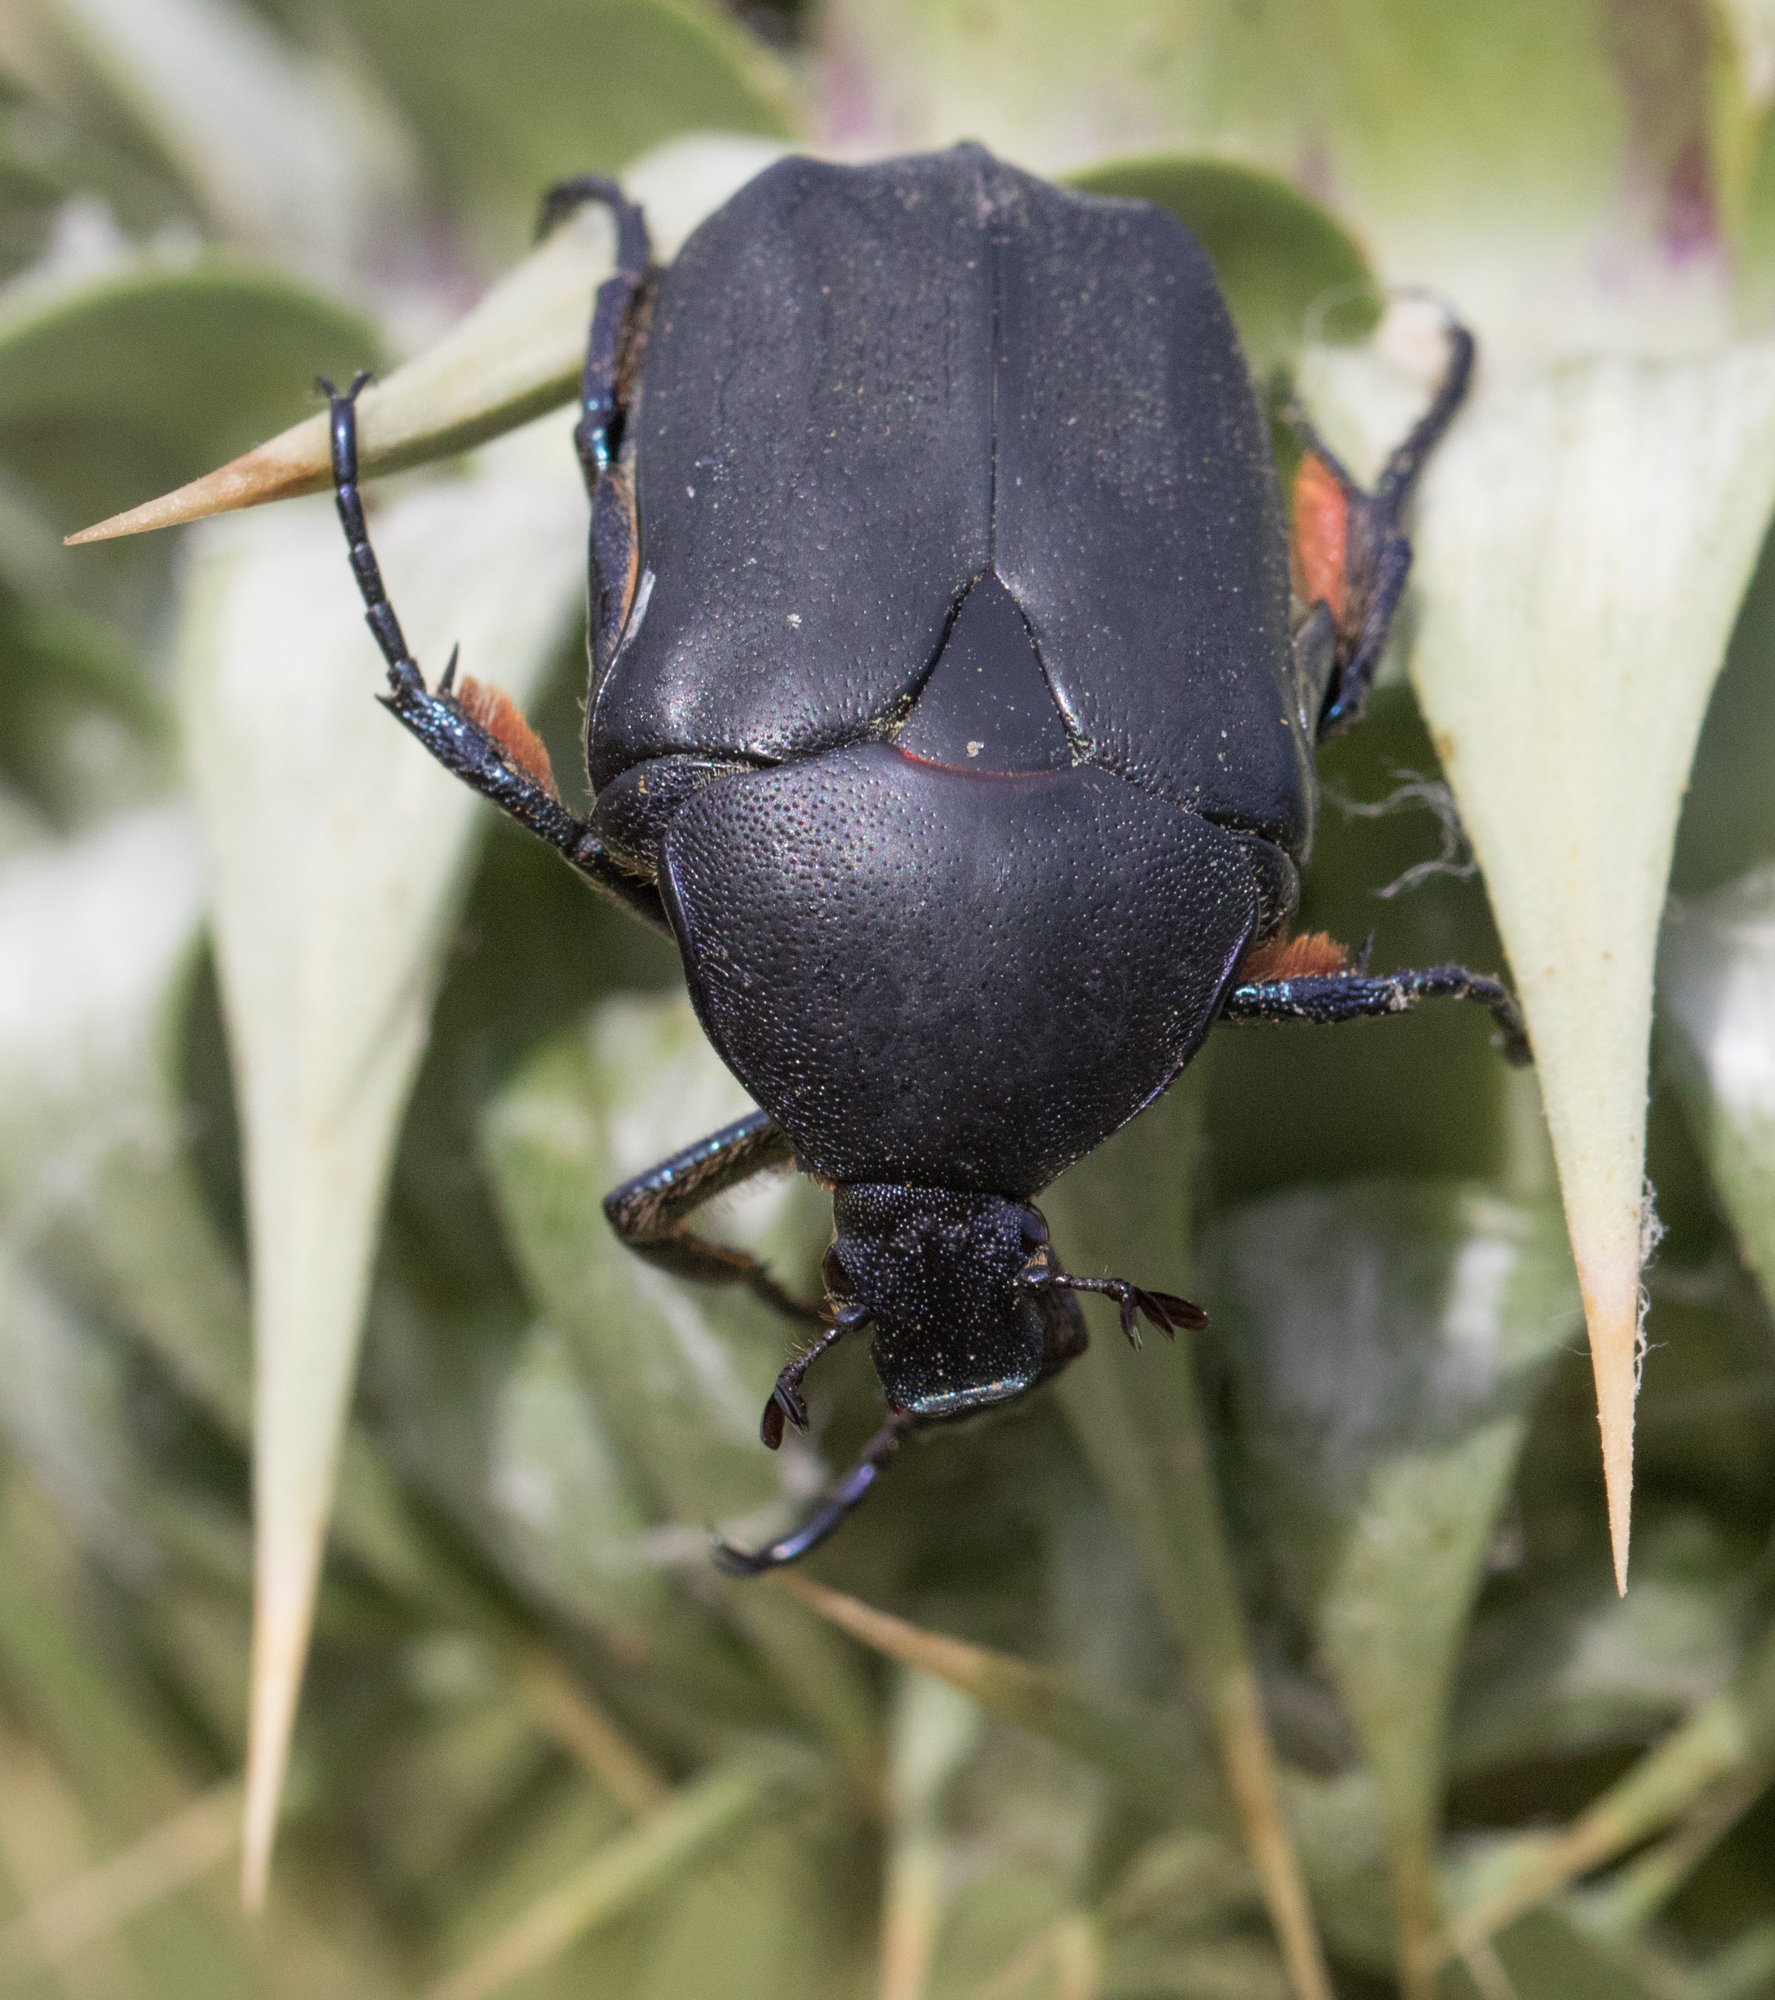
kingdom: Animalia
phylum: Arthropoda
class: Insecta
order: Coleoptera
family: Scarabaeidae
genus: Protaetia
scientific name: Protaetia cretica
